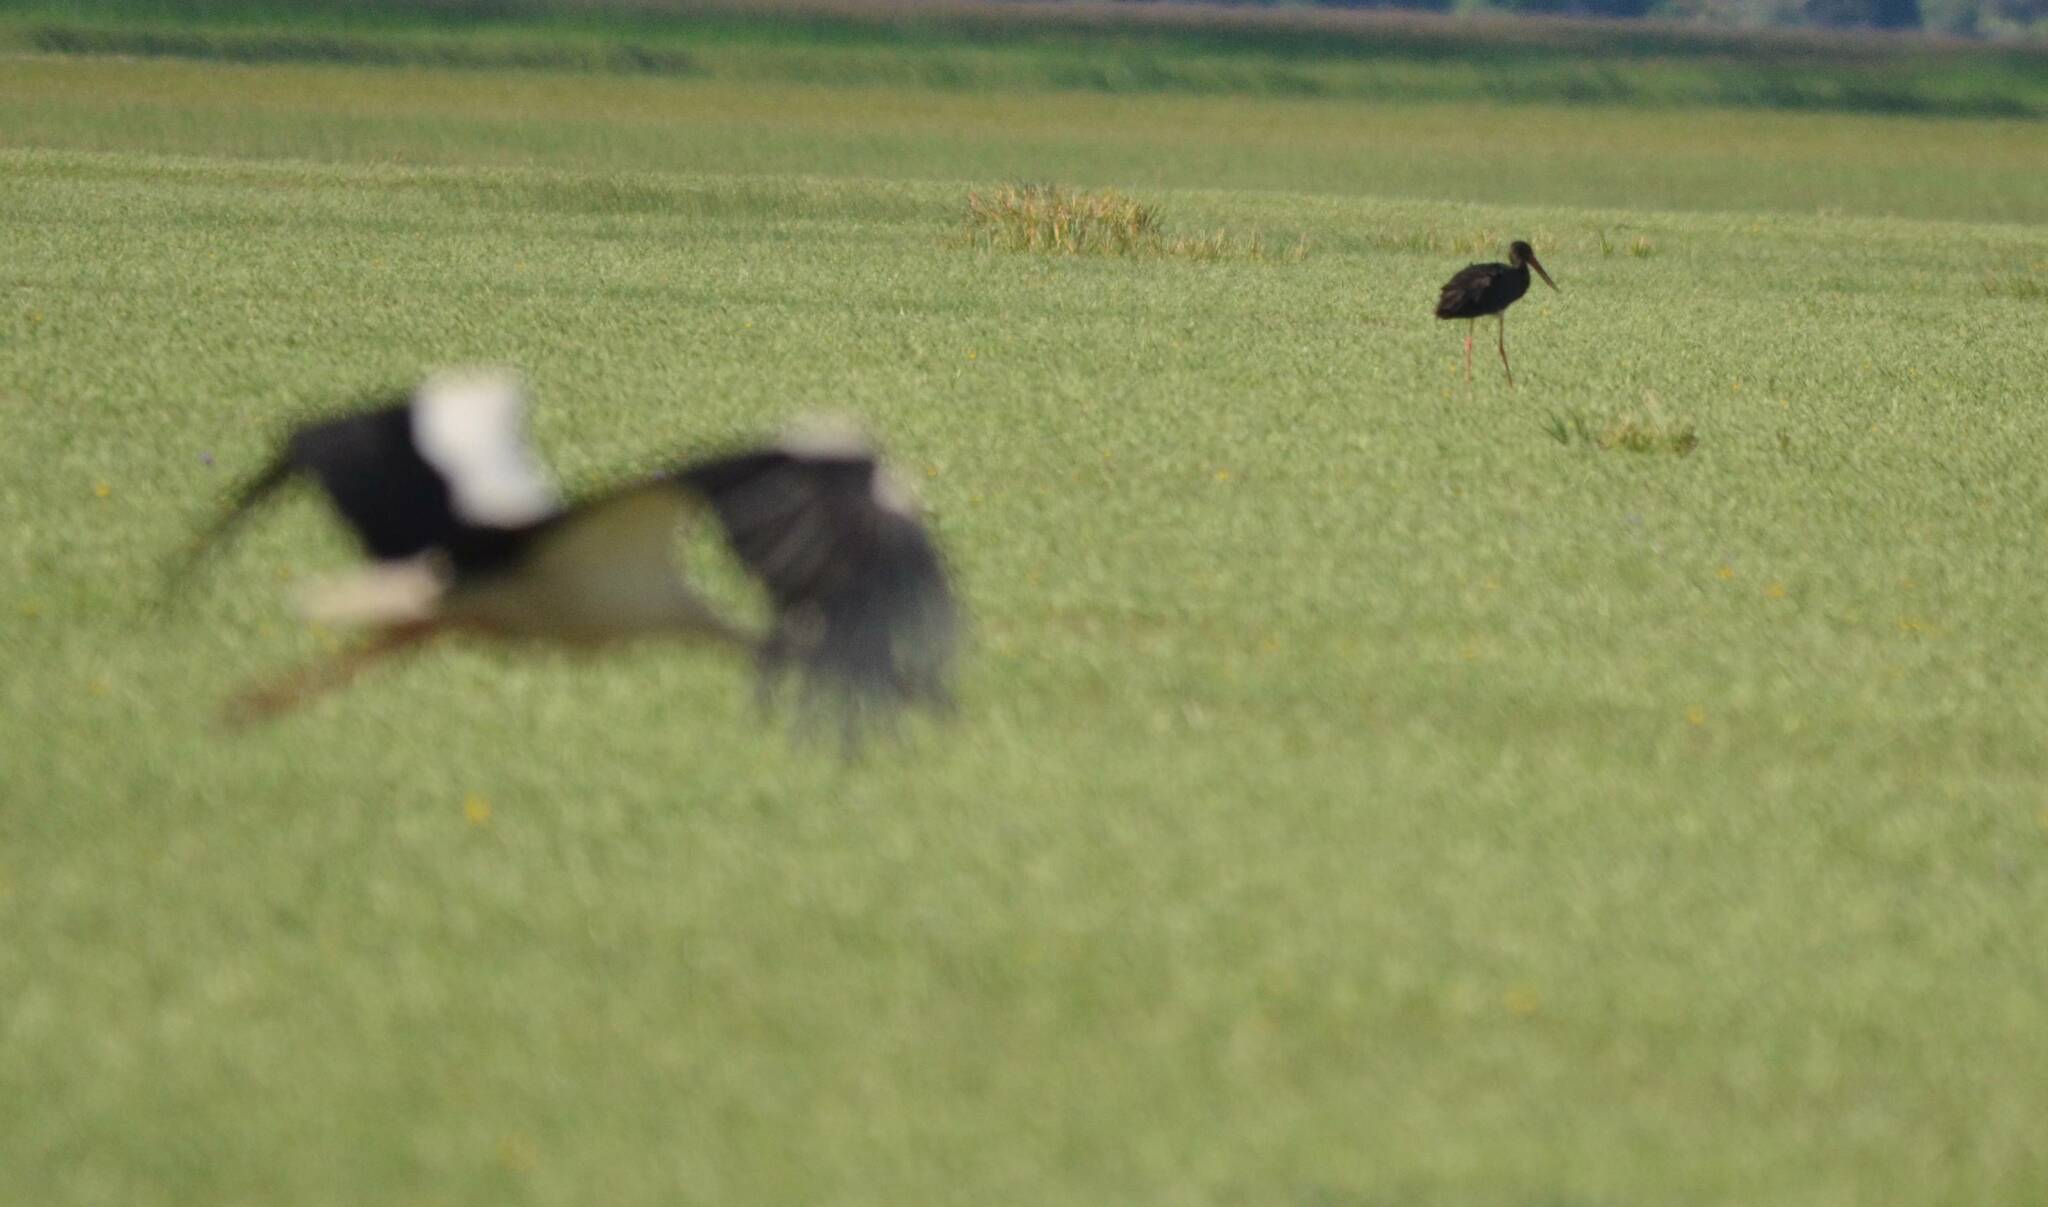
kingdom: Animalia
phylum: Chordata
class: Aves
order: Ciconiiformes
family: Ciconiidae
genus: Ciconia
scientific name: Ciconia ciconia
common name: White stork
